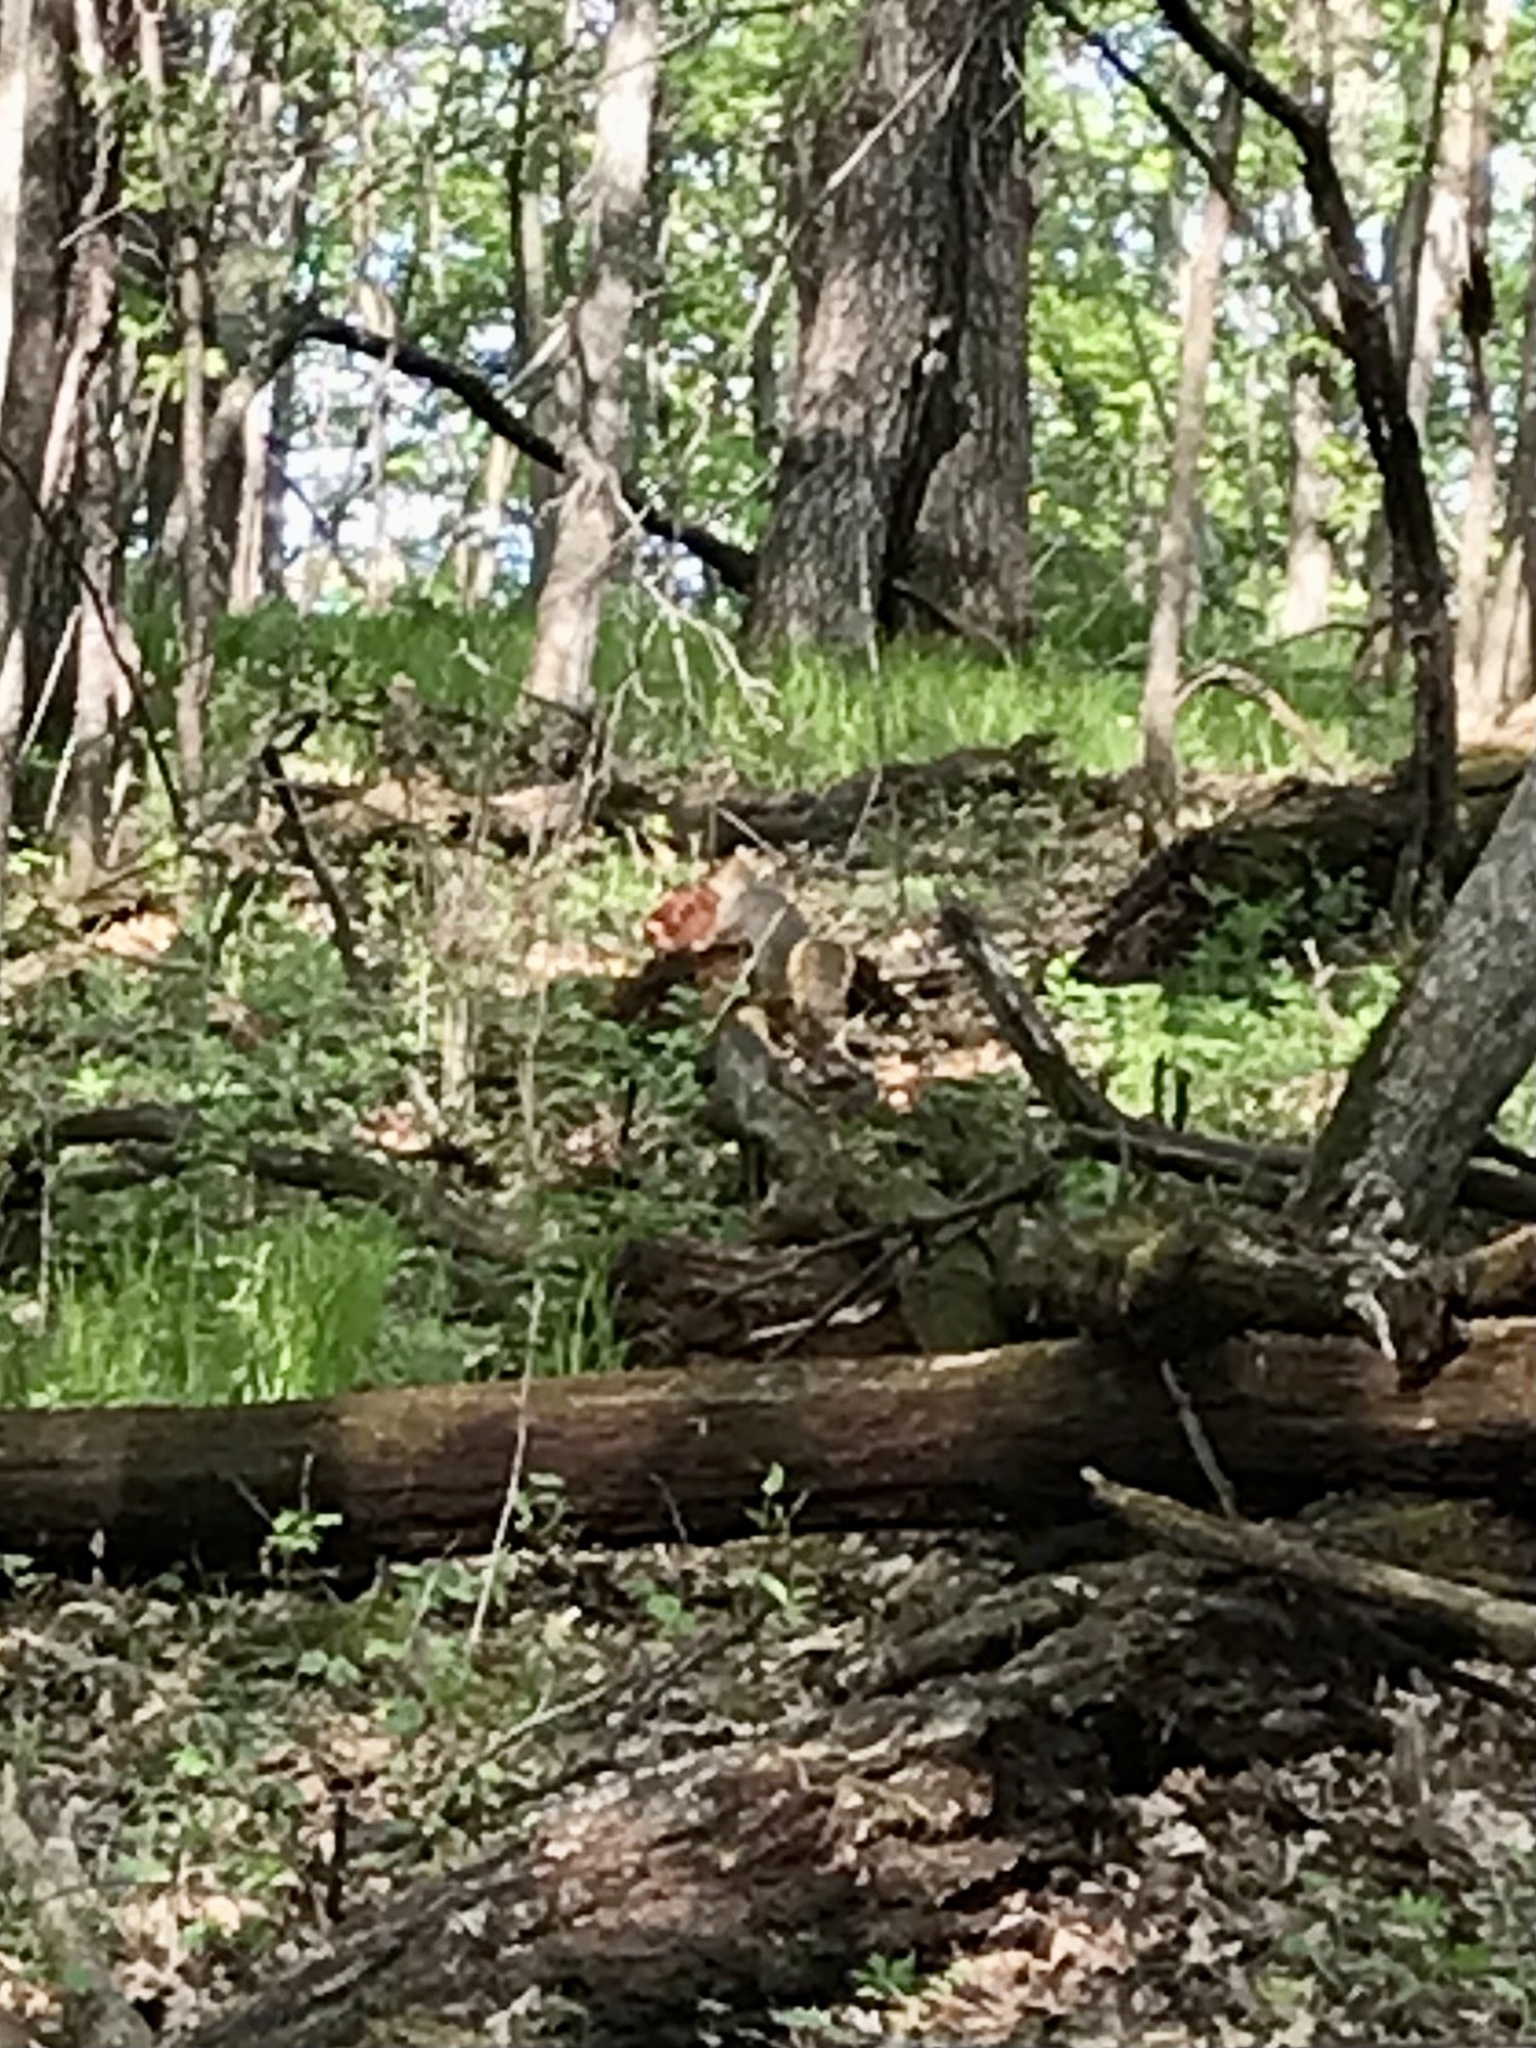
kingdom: Animalia
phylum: Chordata
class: Mammalia
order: Rodentia
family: Sciuridae
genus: Sciurus
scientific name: Sciurus niger
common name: Fox squirrel
